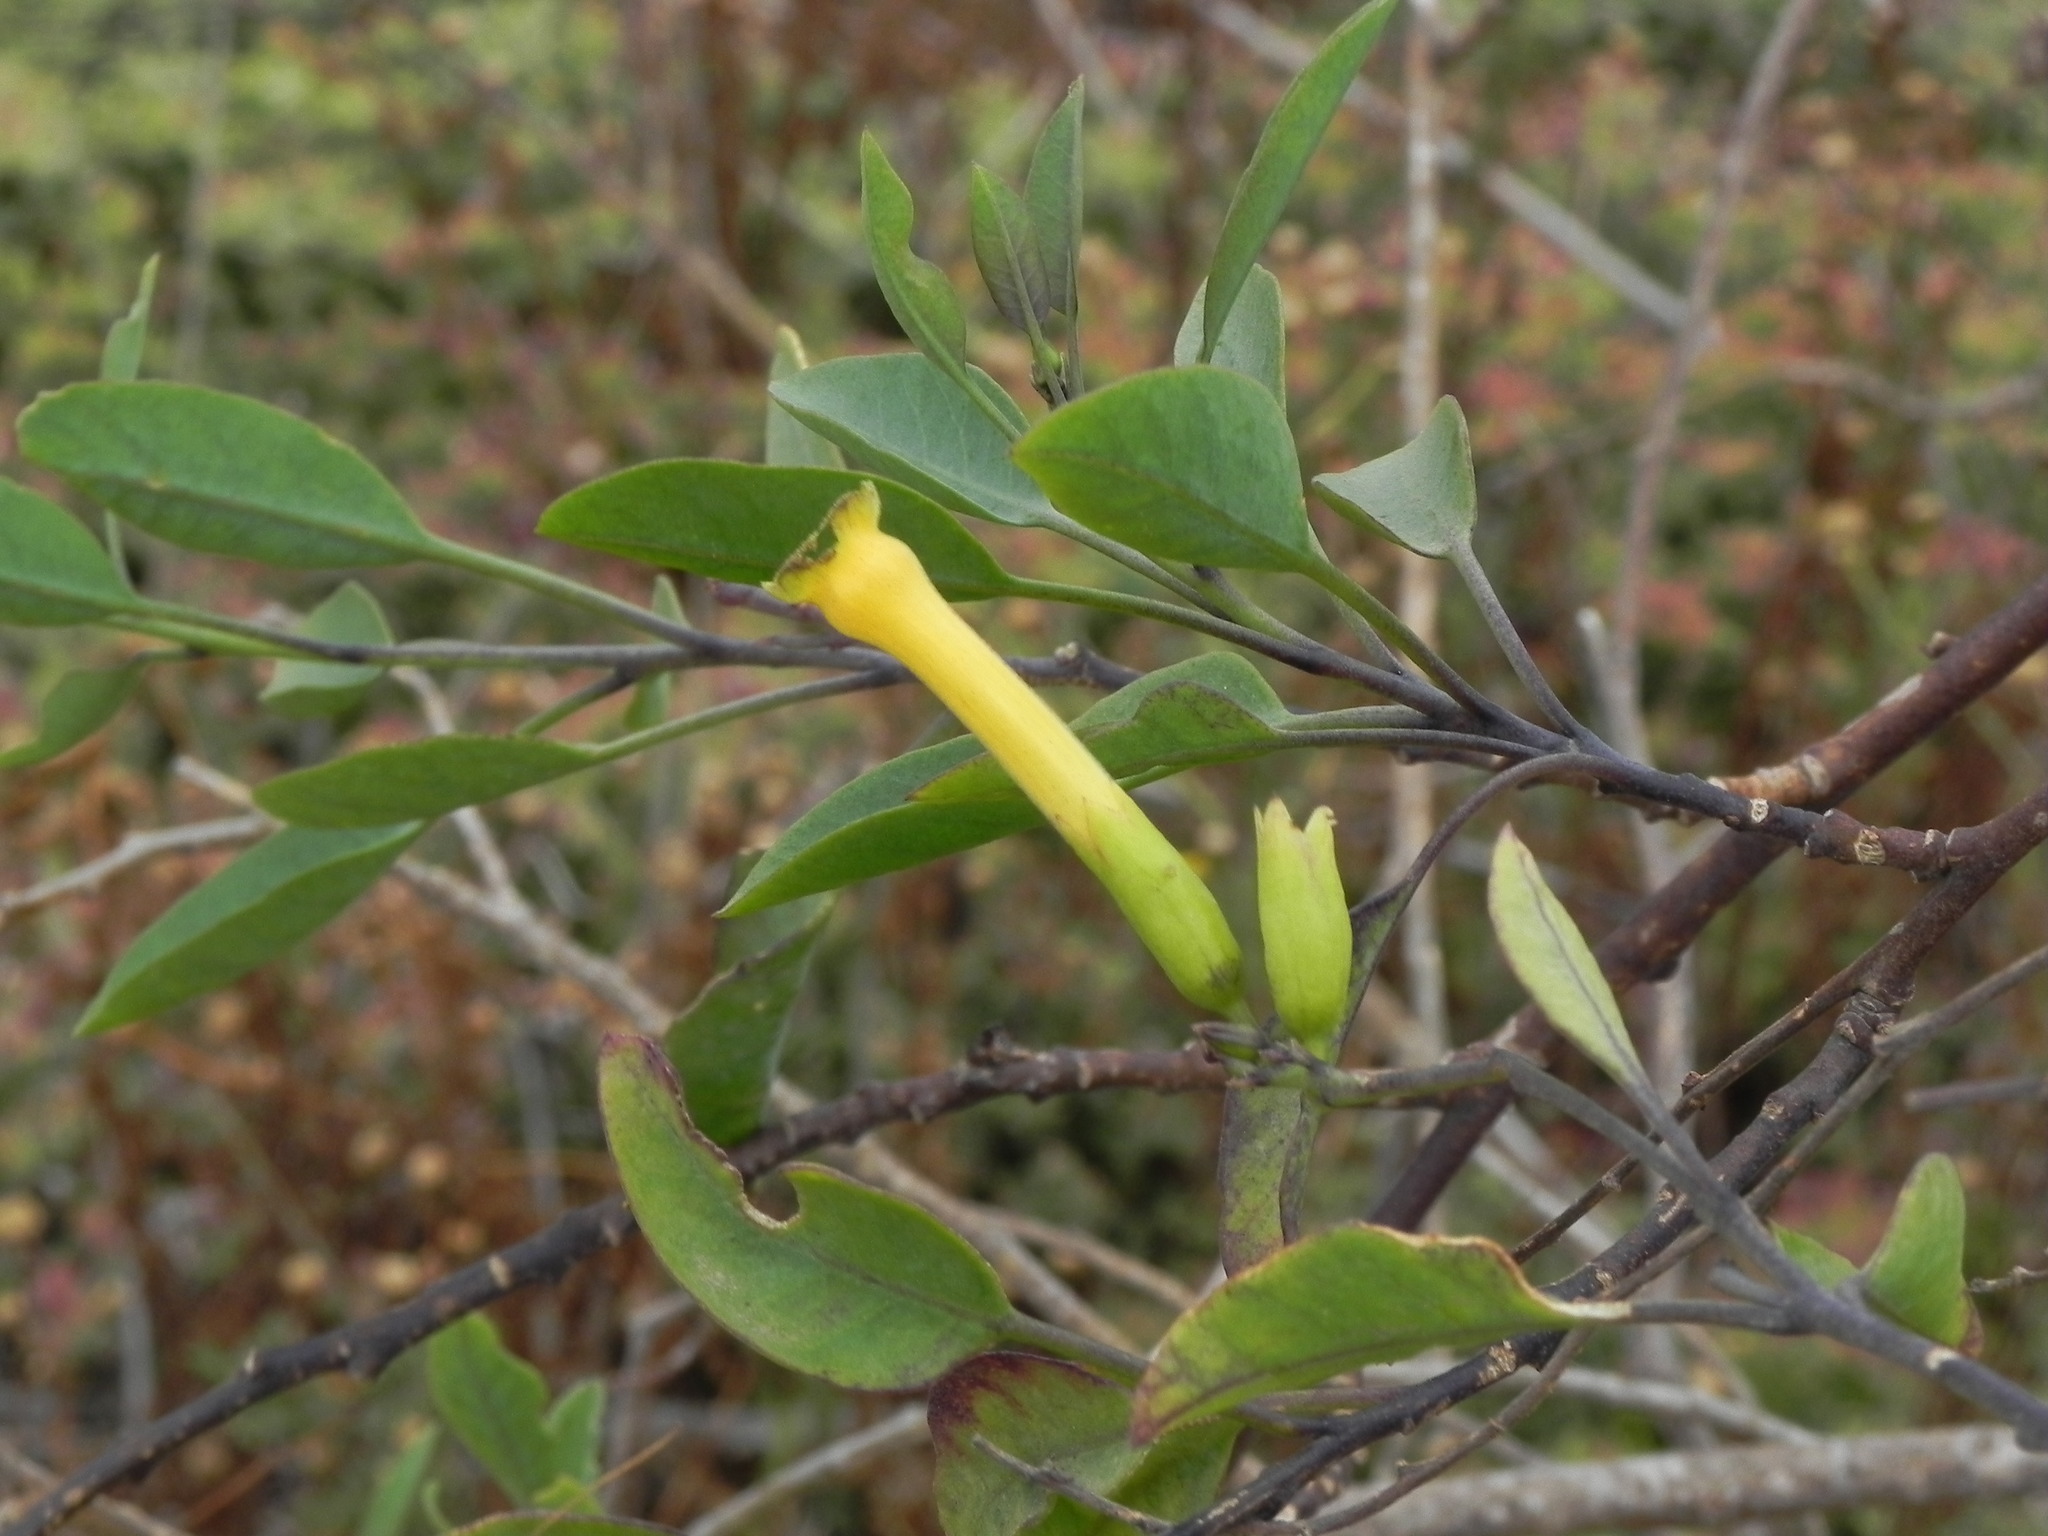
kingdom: Plantae
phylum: Tracheophyta
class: Magnoliopsida
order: Solanales
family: Solanaceae
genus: Nicotiana
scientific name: Nicotiana glauca
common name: Tree tobacco
